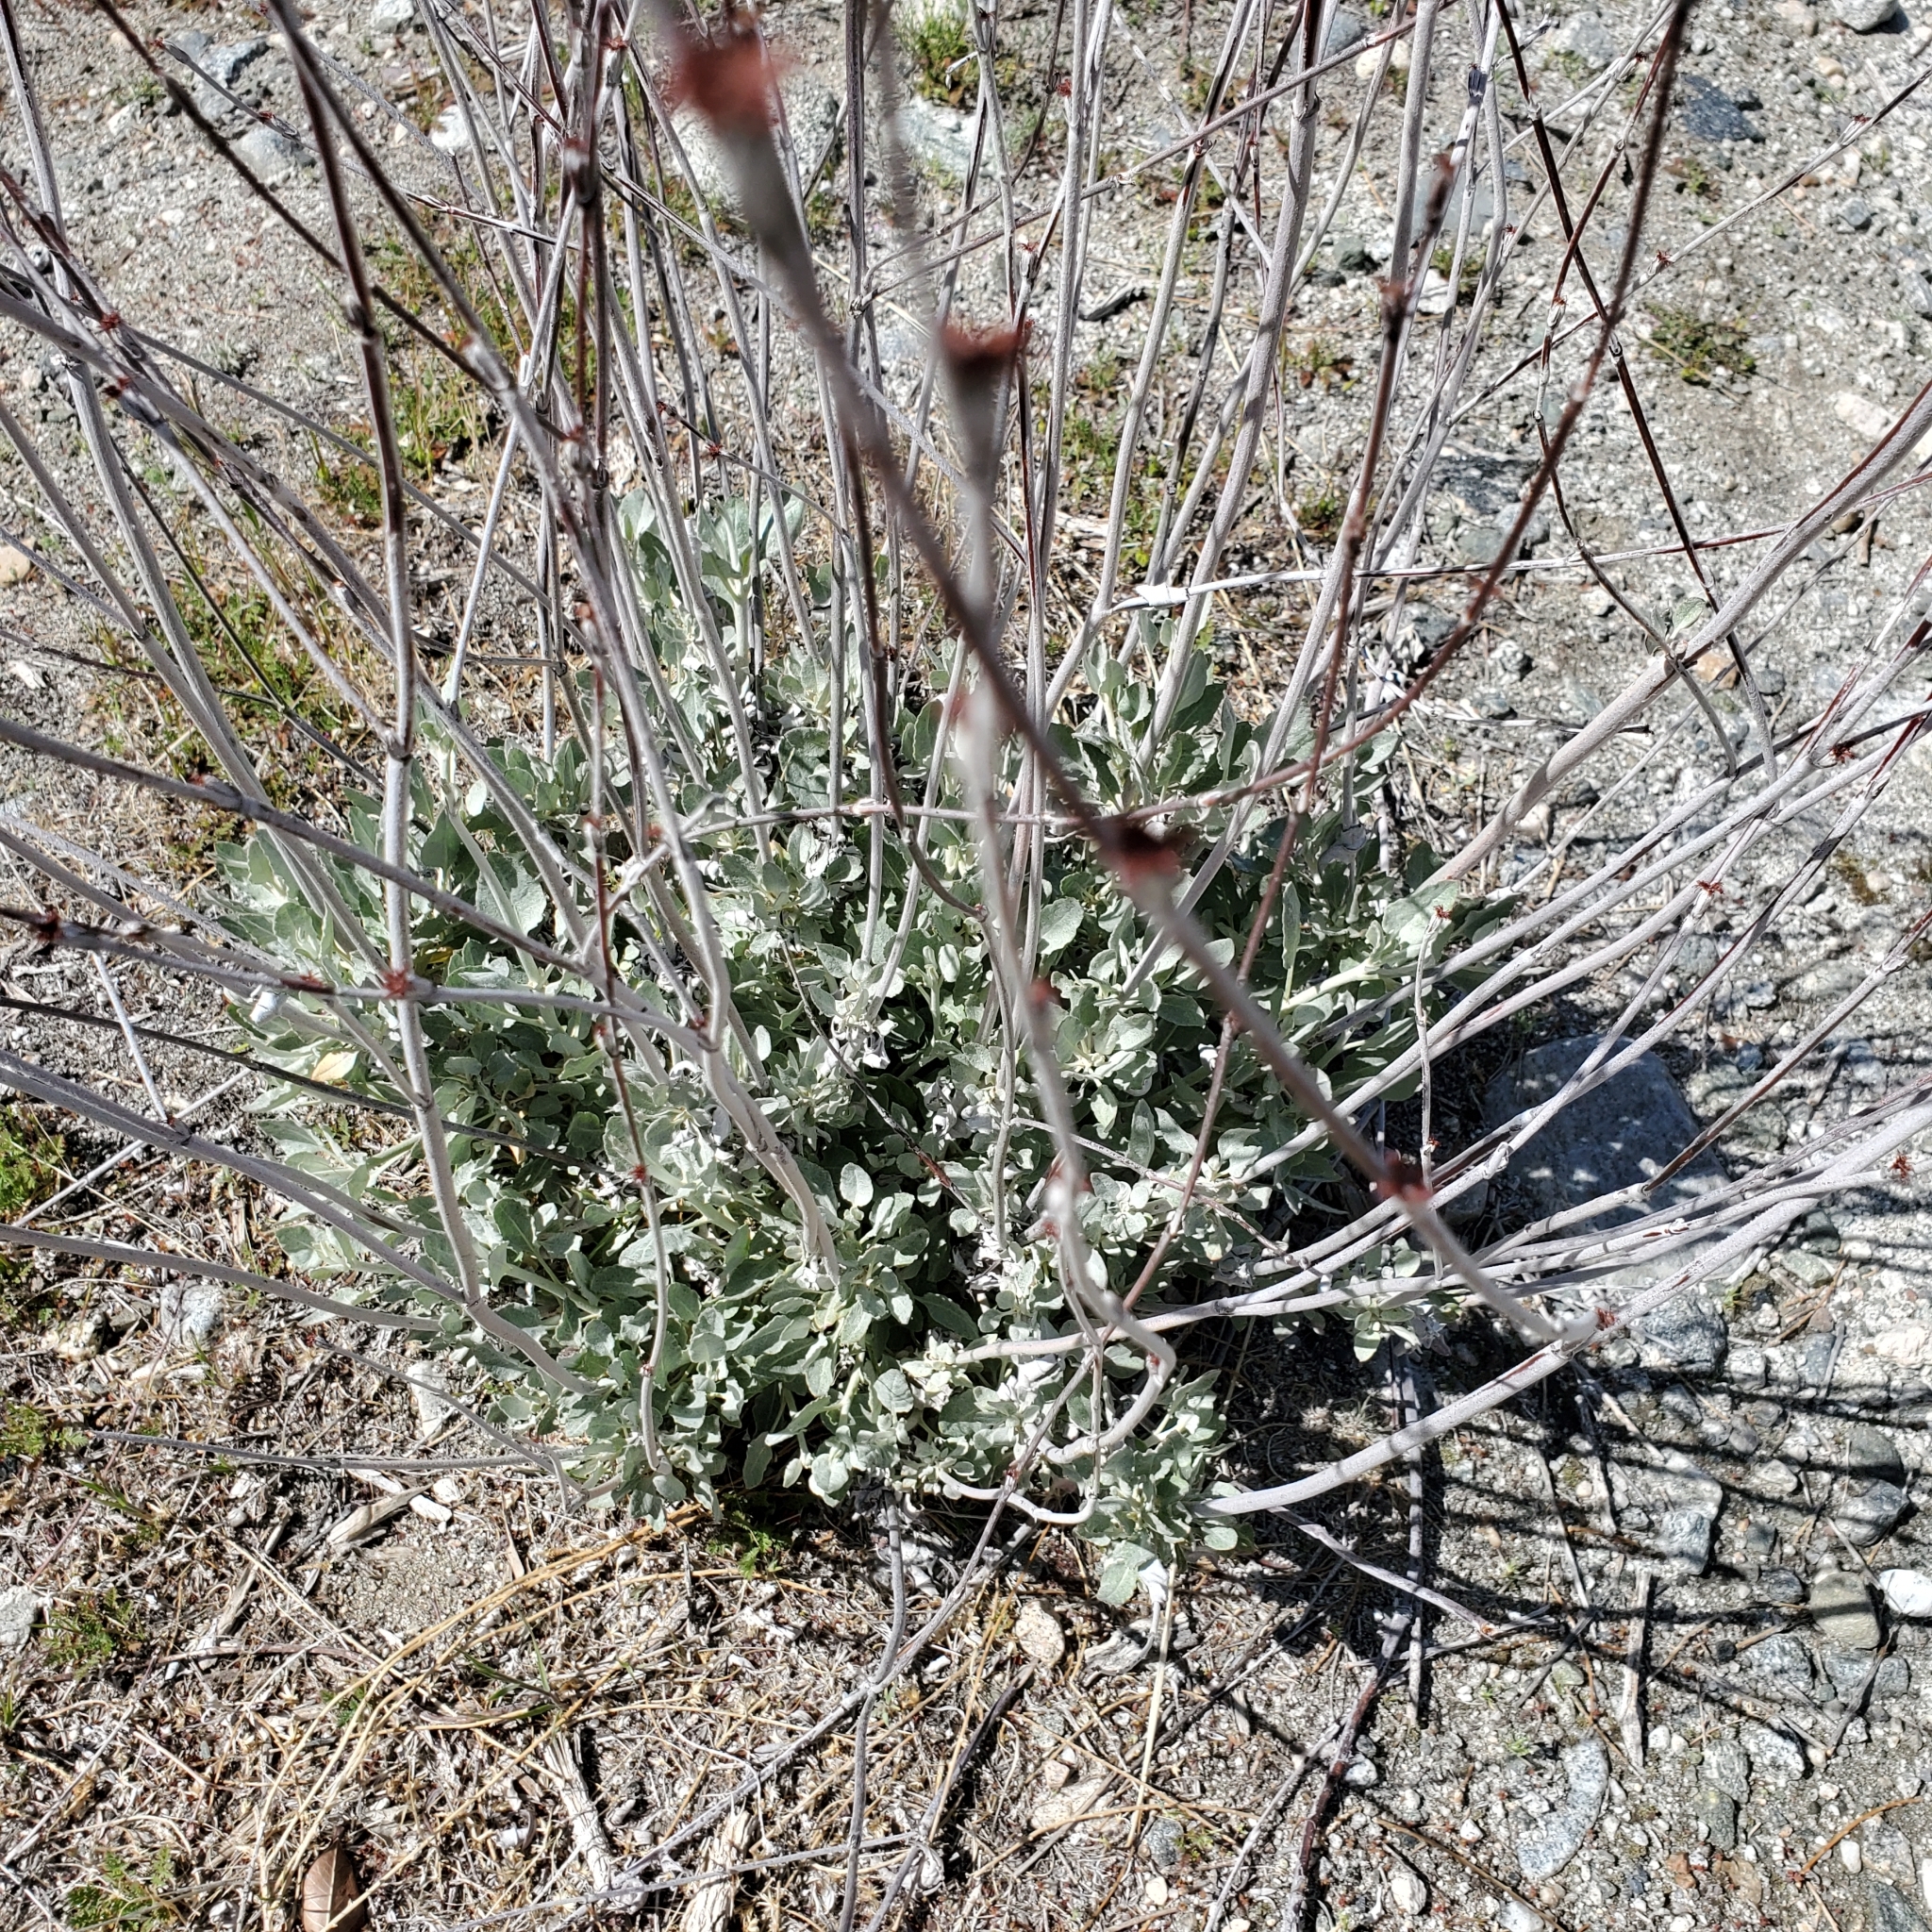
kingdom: Plantae
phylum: Tracheophyta
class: Magnoliopsida
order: Caryophyllales
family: Polygonaceae
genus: Eriogonum
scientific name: Eriogonum elongatum
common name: Long-stem wild buckwheat
